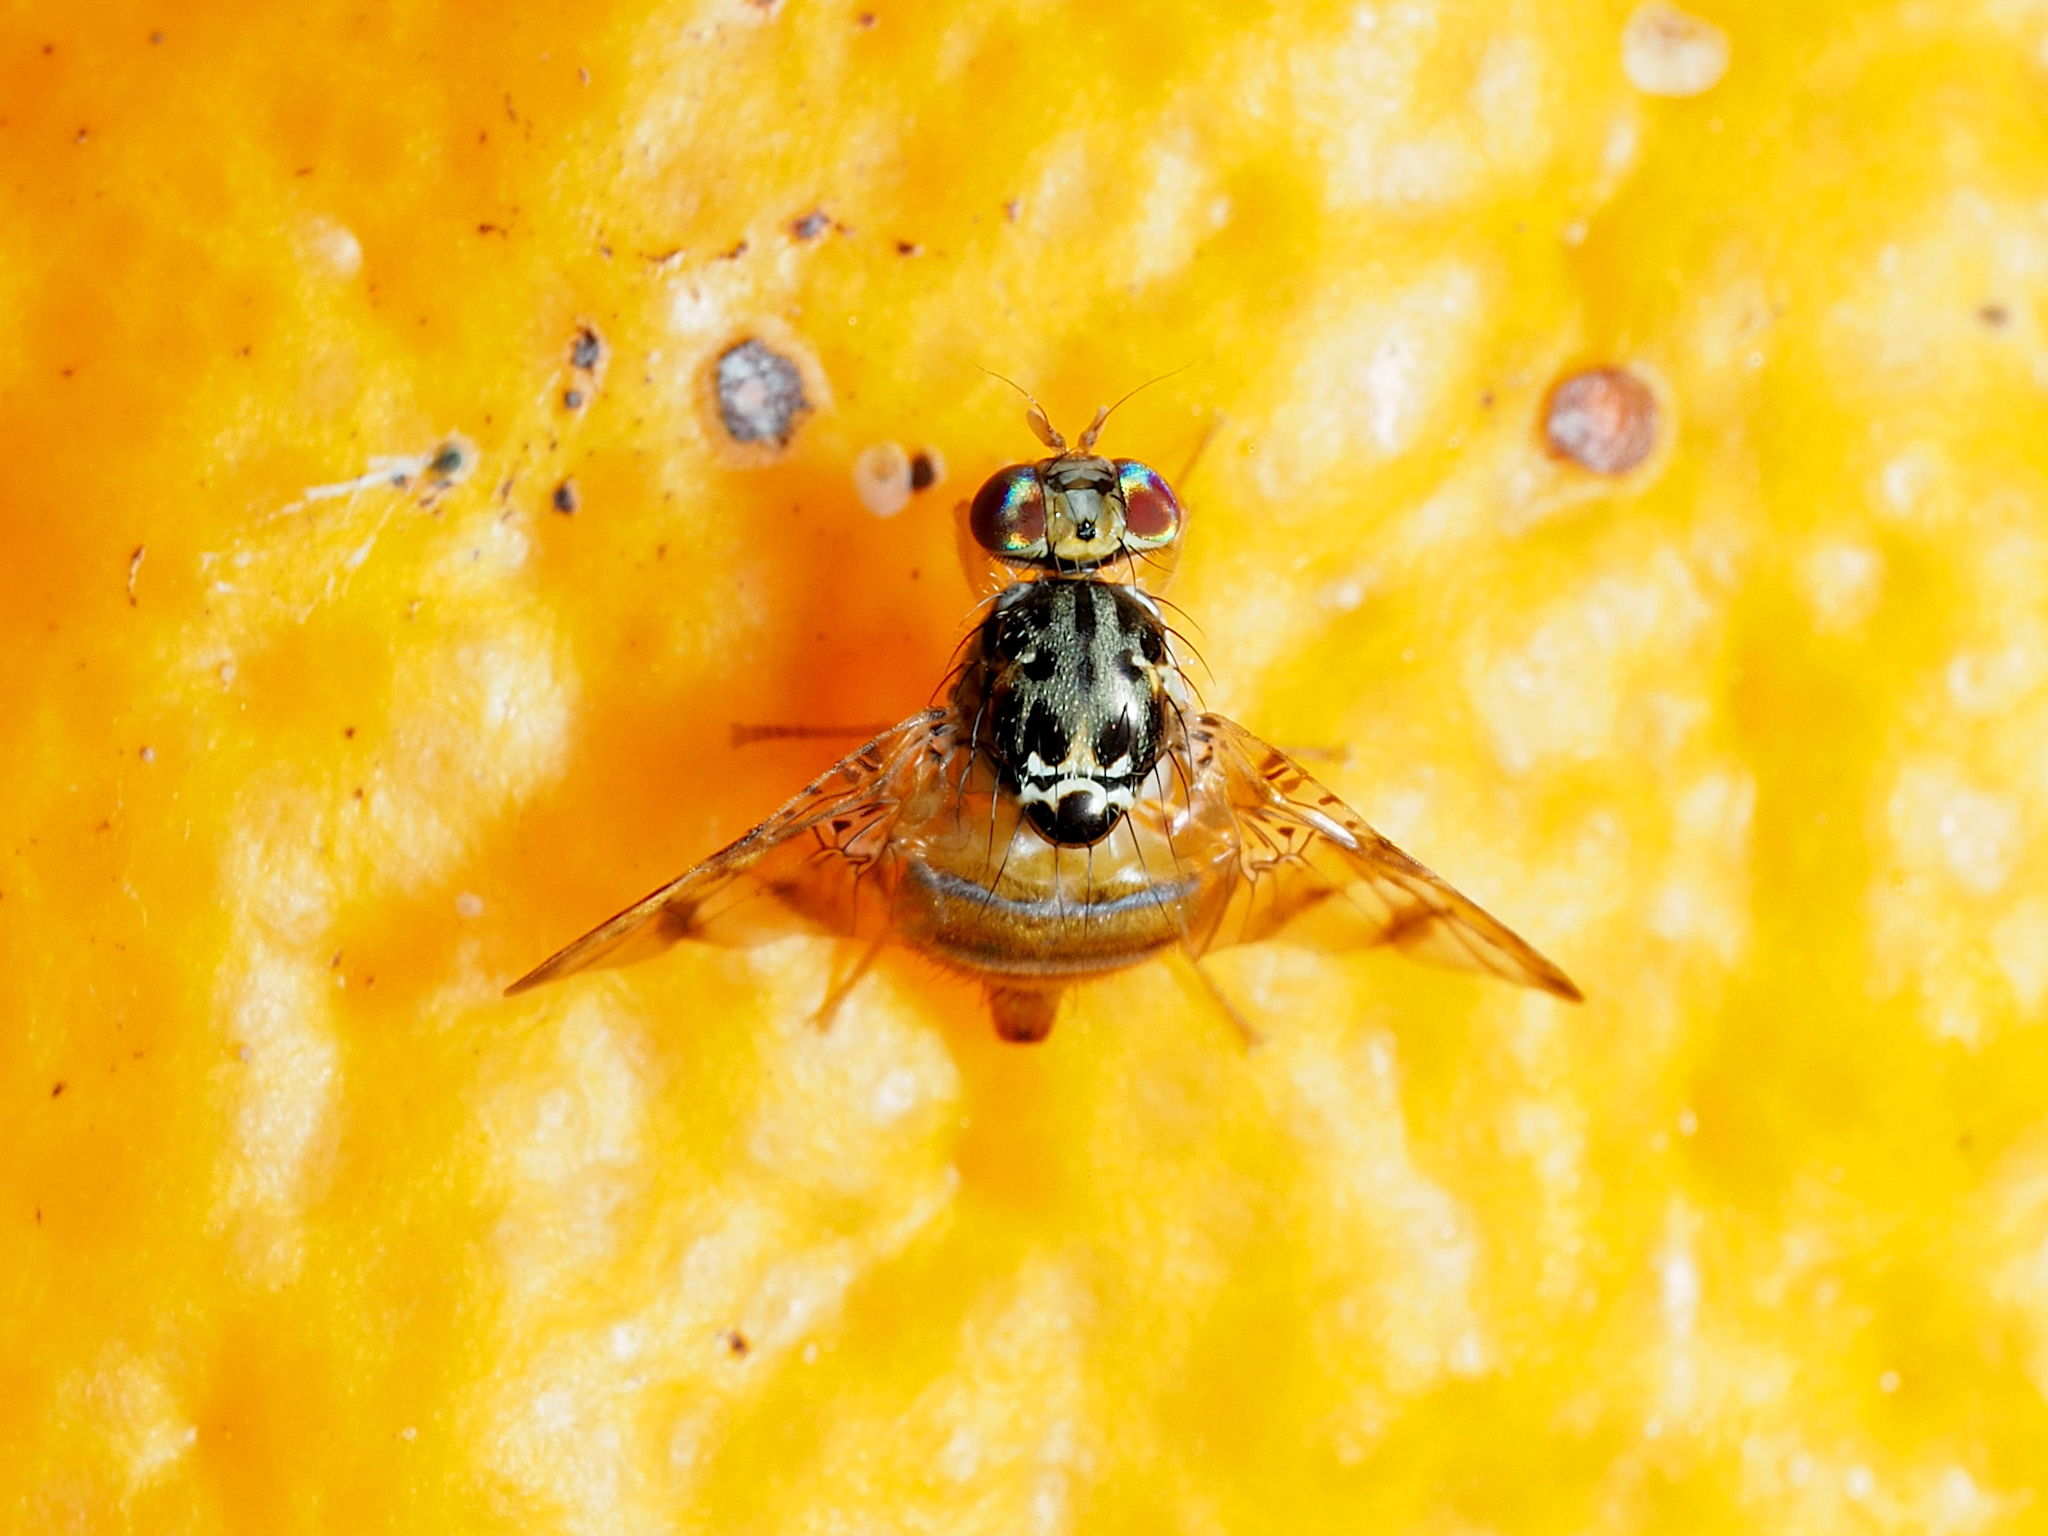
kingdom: Animalia
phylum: Arthropoda
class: Insecta
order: Diptera
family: Tephritidae
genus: Ceratitis
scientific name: Ceratitis capitata
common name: Mediterranean fruit fly
